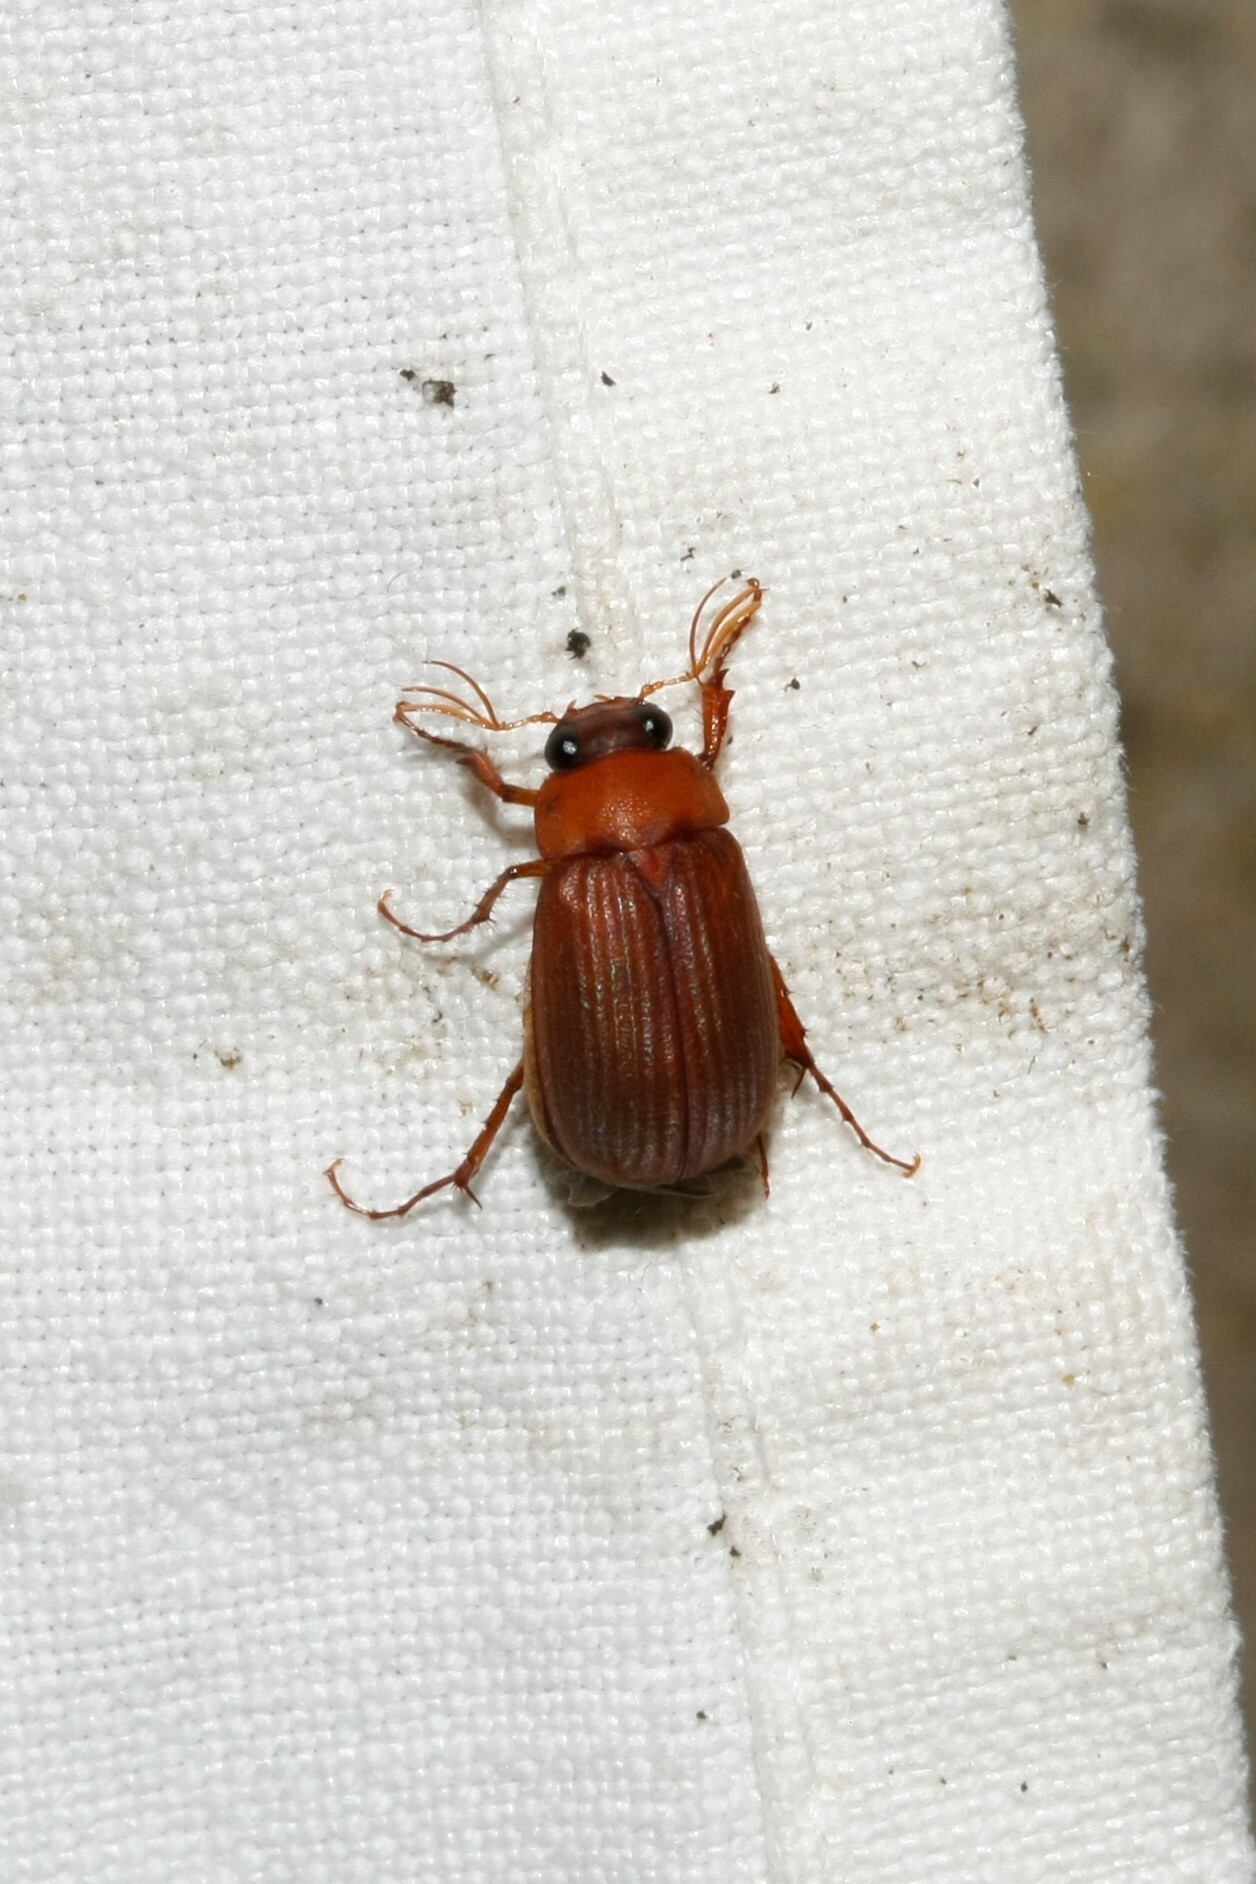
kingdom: Animalia
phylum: Arthropoda
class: Insecta
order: Coleoptera
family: Scarabaeidae
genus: Serica
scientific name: Serica brunnea
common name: Brown chafer
